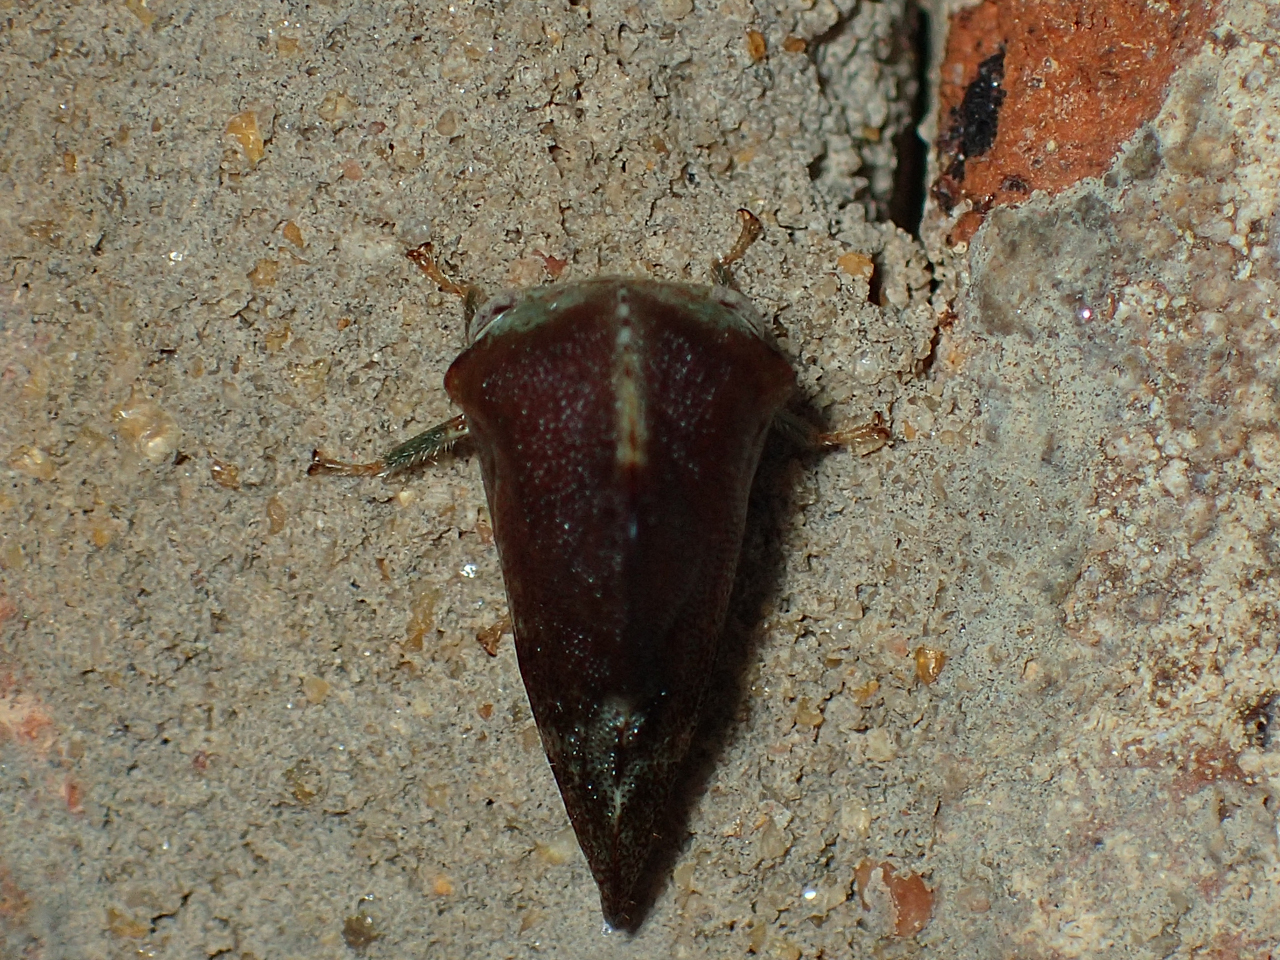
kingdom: Animalia
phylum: Arthropoda
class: Insecta
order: Hemiptera
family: Membracidae
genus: Telamona
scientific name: Telamona woodruffi
